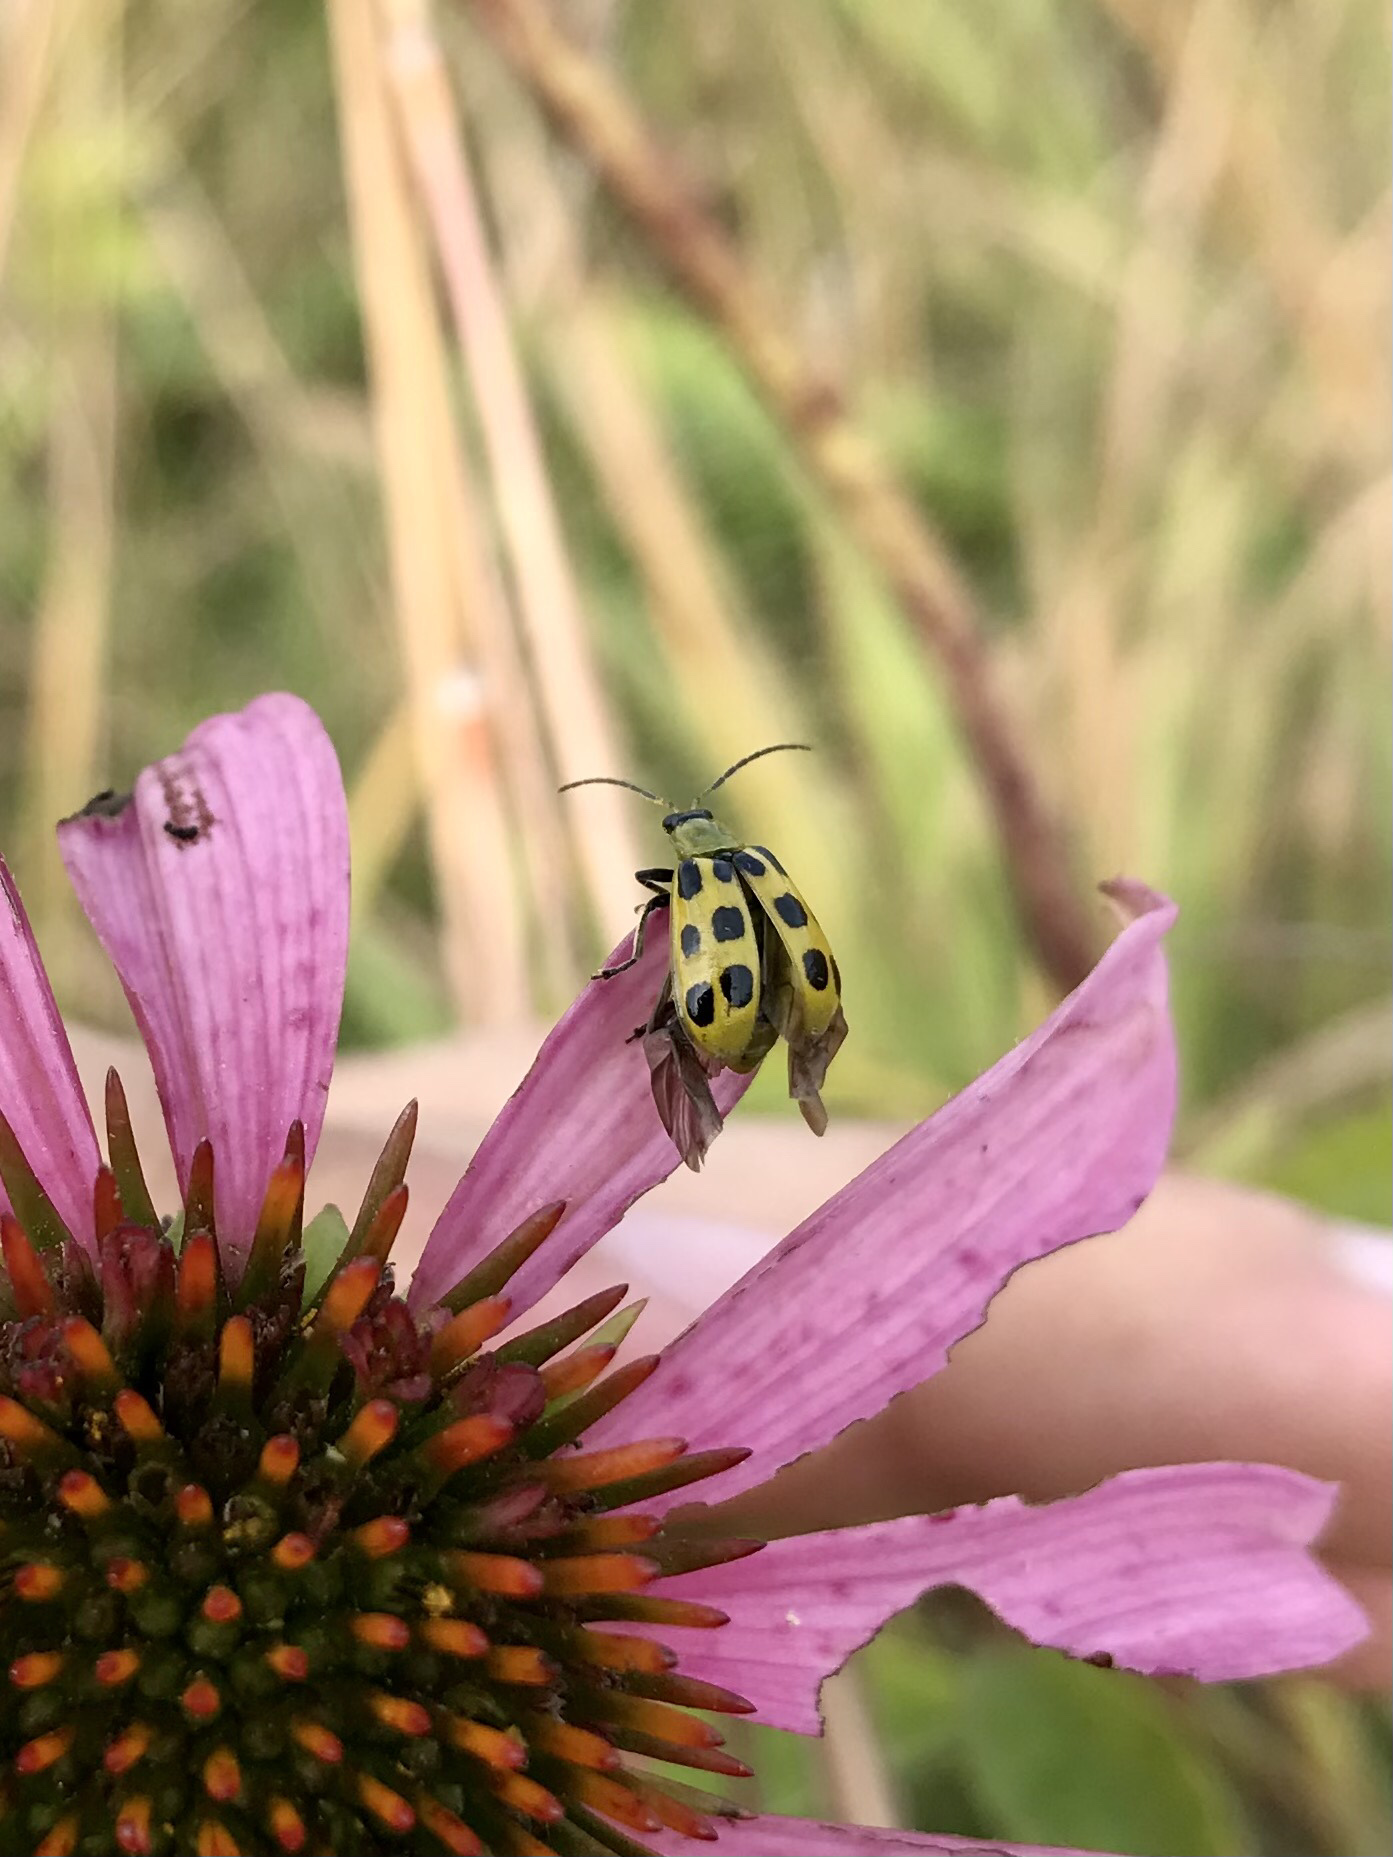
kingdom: Animalia
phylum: Arthropoda
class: Insecta
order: Coleoptera
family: Chrysomelidae
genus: Diabrotica
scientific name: Diabrotica undecimpunctata
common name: Spotted cucumber beetle
